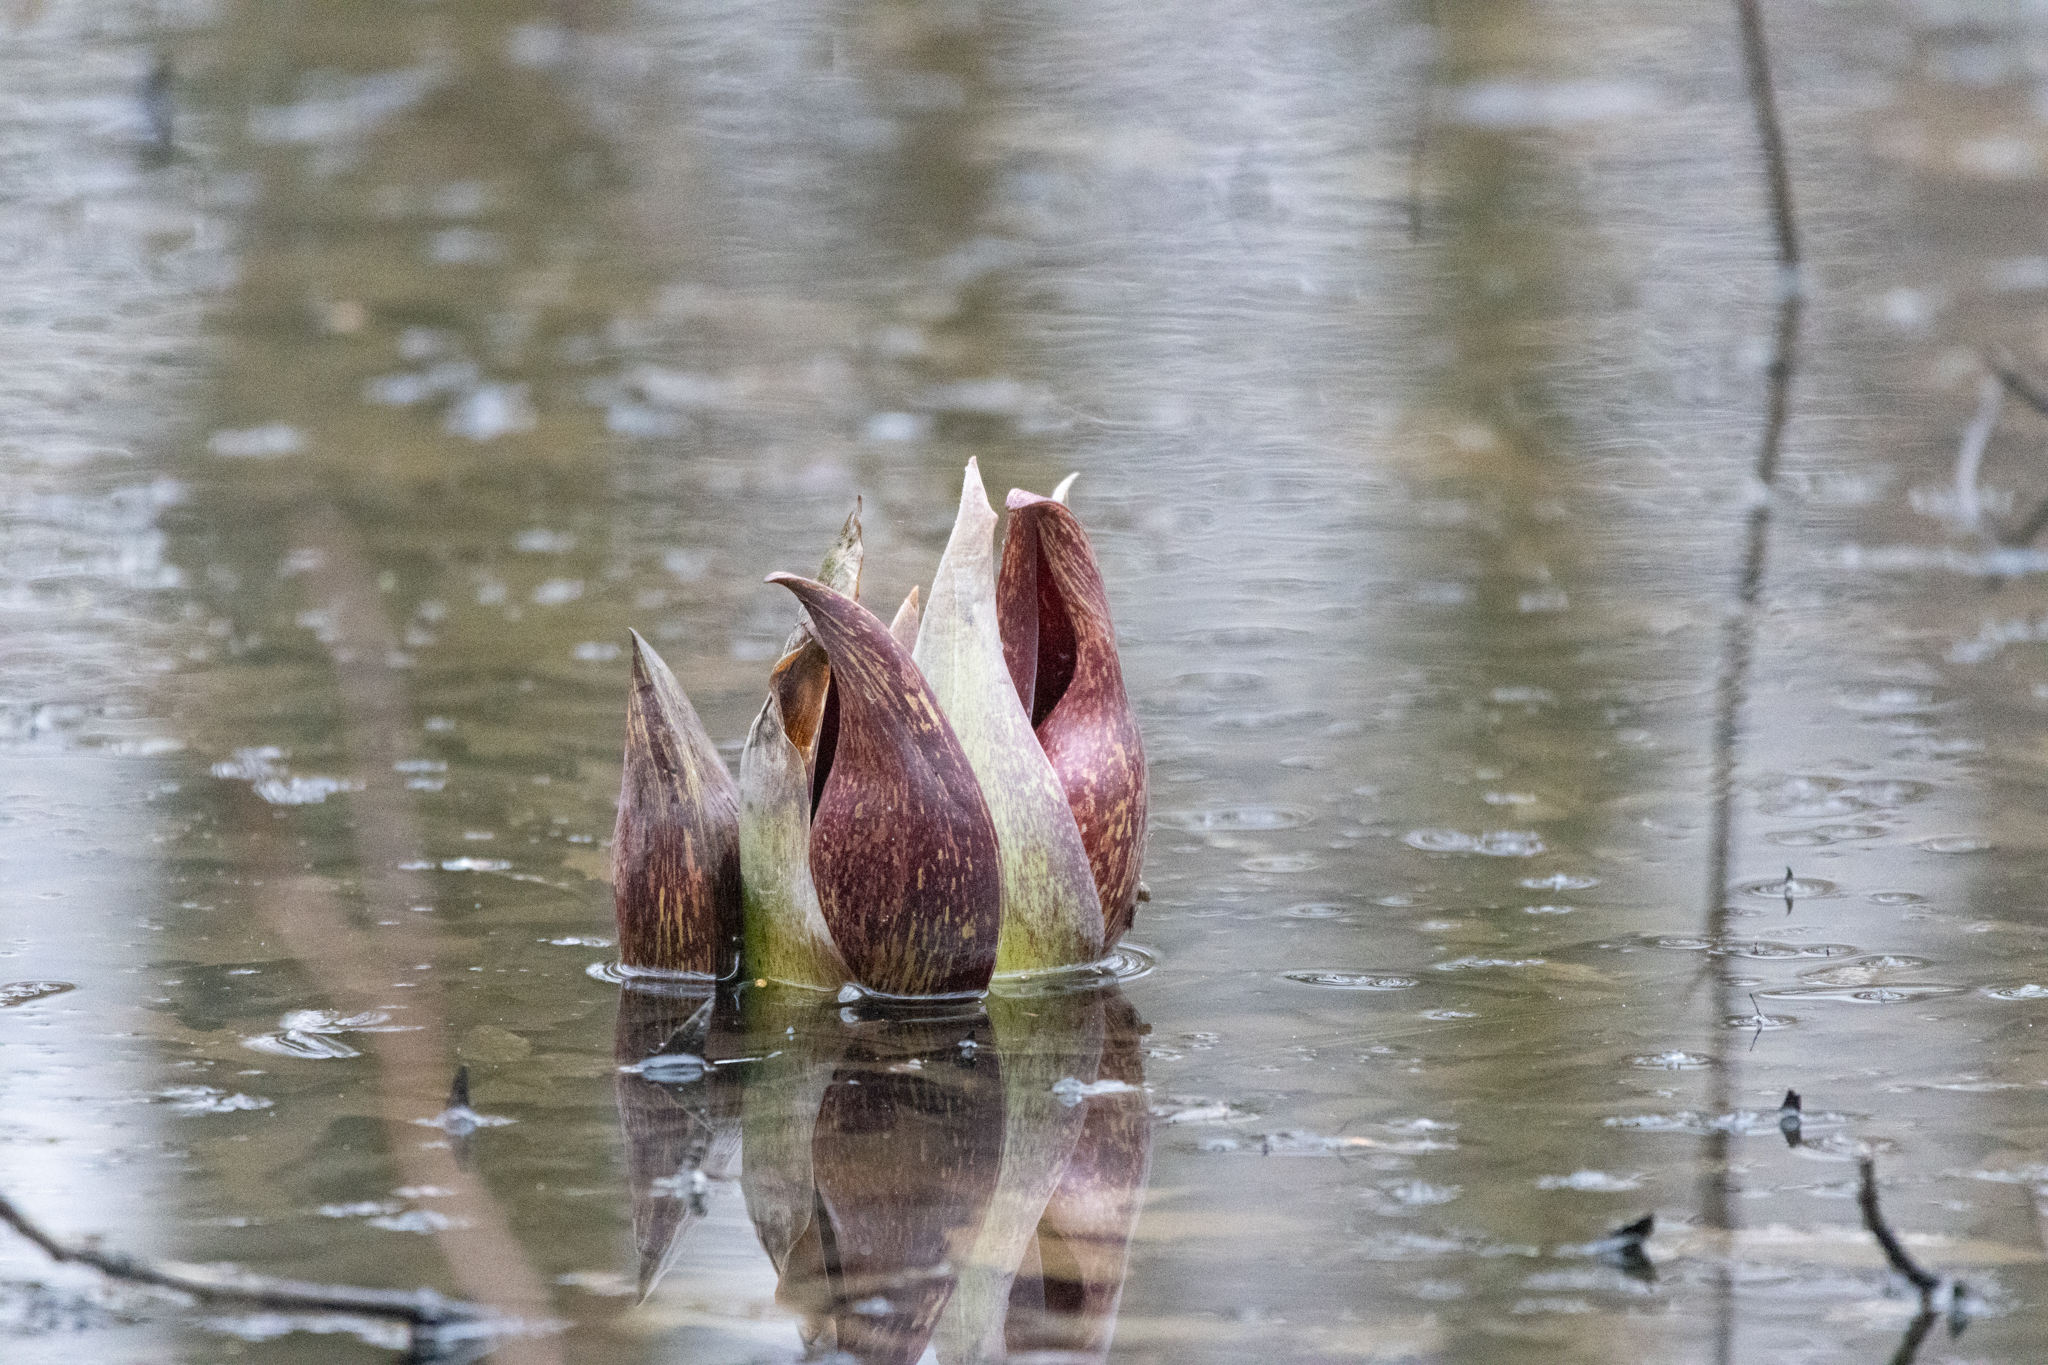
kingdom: Plantae
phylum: Tracheophyta
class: Liliopsida
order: Alismatales
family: Araceae
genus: Symplocarpus
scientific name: Symplocarpus foetidus
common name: Eastern skunk cabbage
